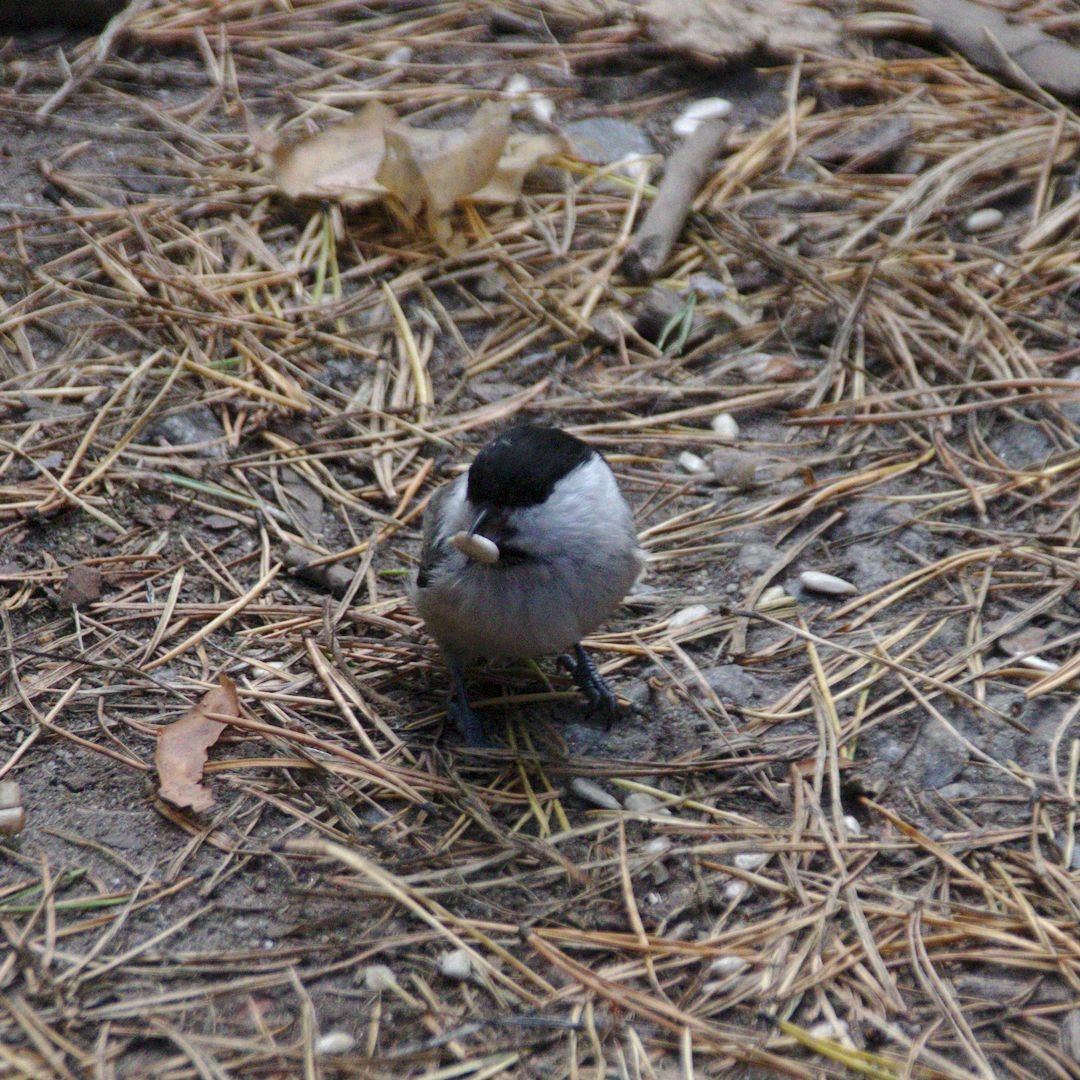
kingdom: Animalia
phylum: Chordata
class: Aves
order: Passeriformes
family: Paridae
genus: Poecile
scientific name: Poecile montanus
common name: Willow tit
